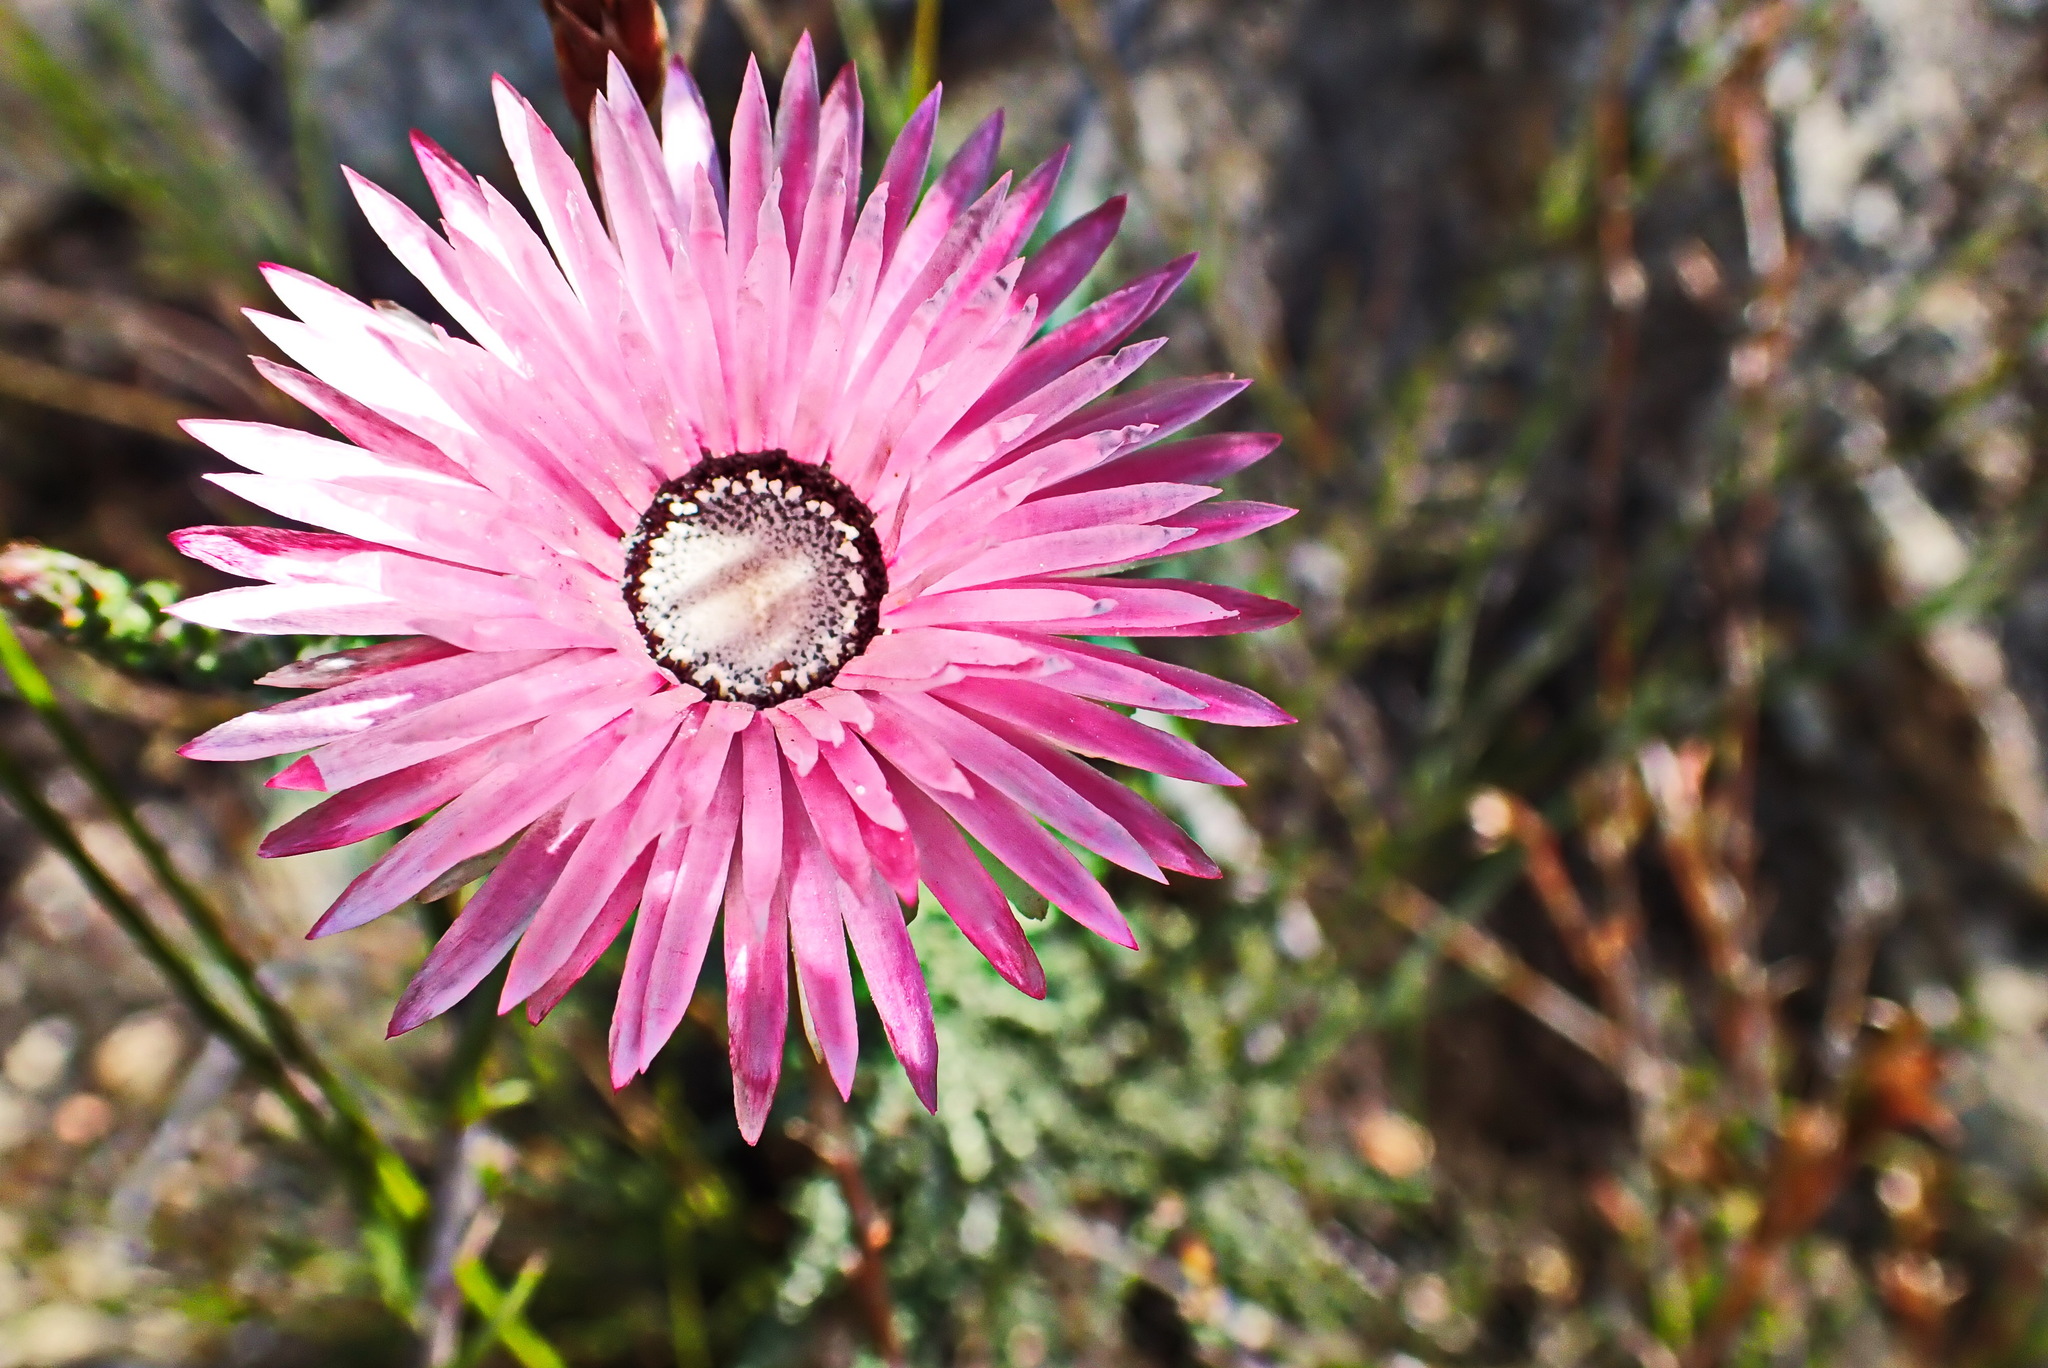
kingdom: Plantae
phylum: Tracheophyta
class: Magnoliopsida
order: Asterales
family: Asteraceae
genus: Syncarpha
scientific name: Syncarpha canescens
